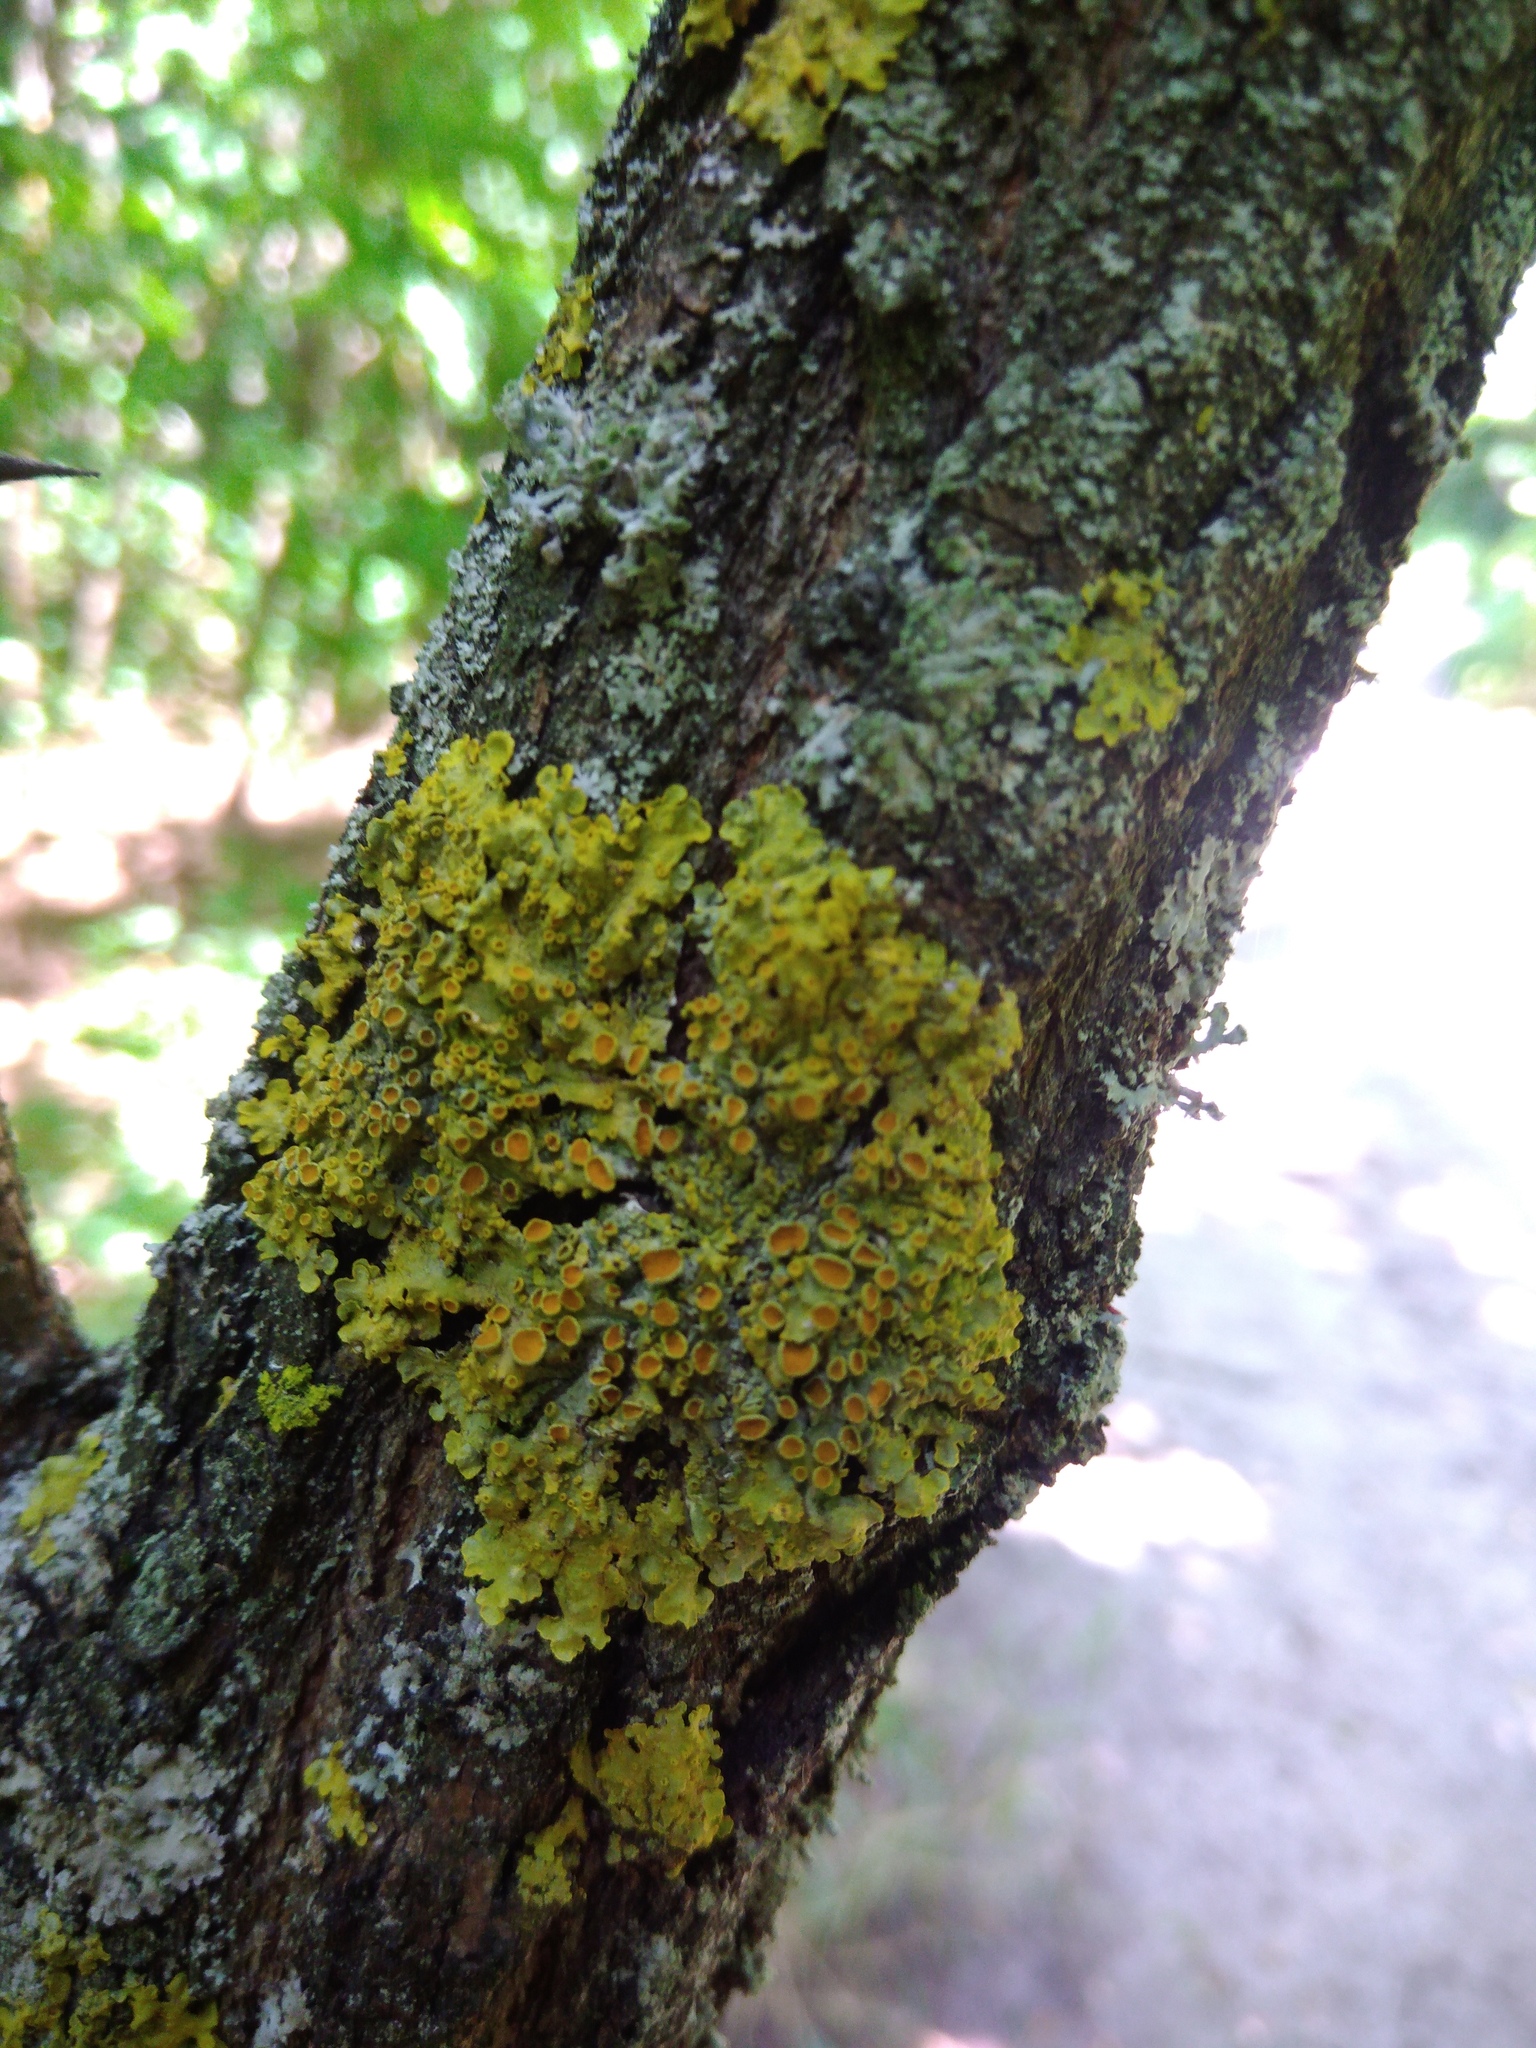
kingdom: Fungi
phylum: Ascomycota
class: Lecanoromycetes
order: Teloschistales
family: Teloschistaceae
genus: Xanthoria
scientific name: Xanthoria parietina
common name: Common orange lichen
